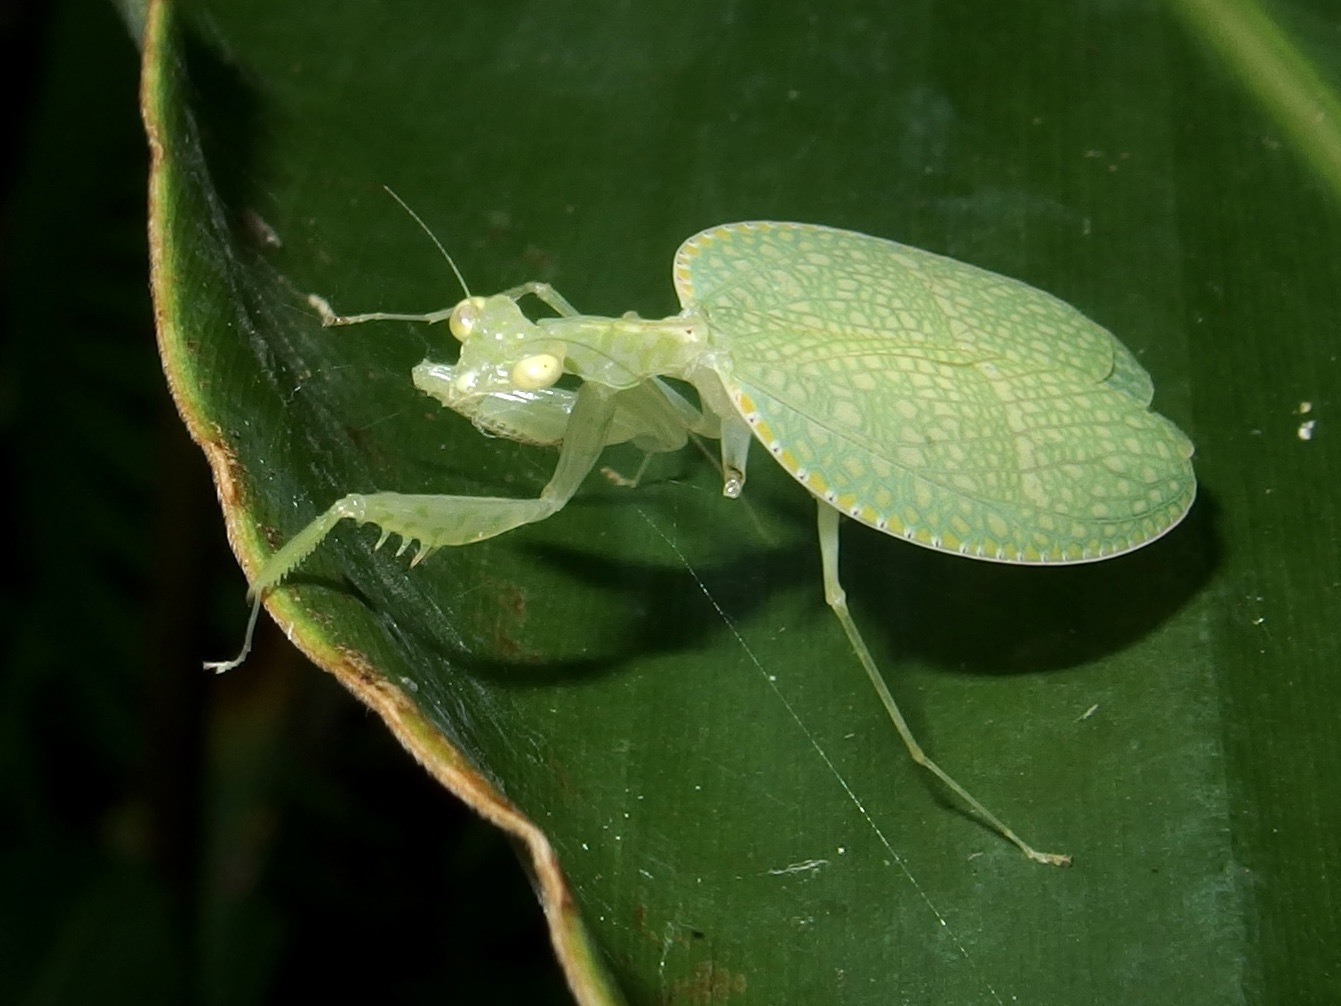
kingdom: Animalia
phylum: Arthropoda
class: Insecta
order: Mantodea
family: Nanomantidae
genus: Neomantis
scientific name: Neomantis australis
